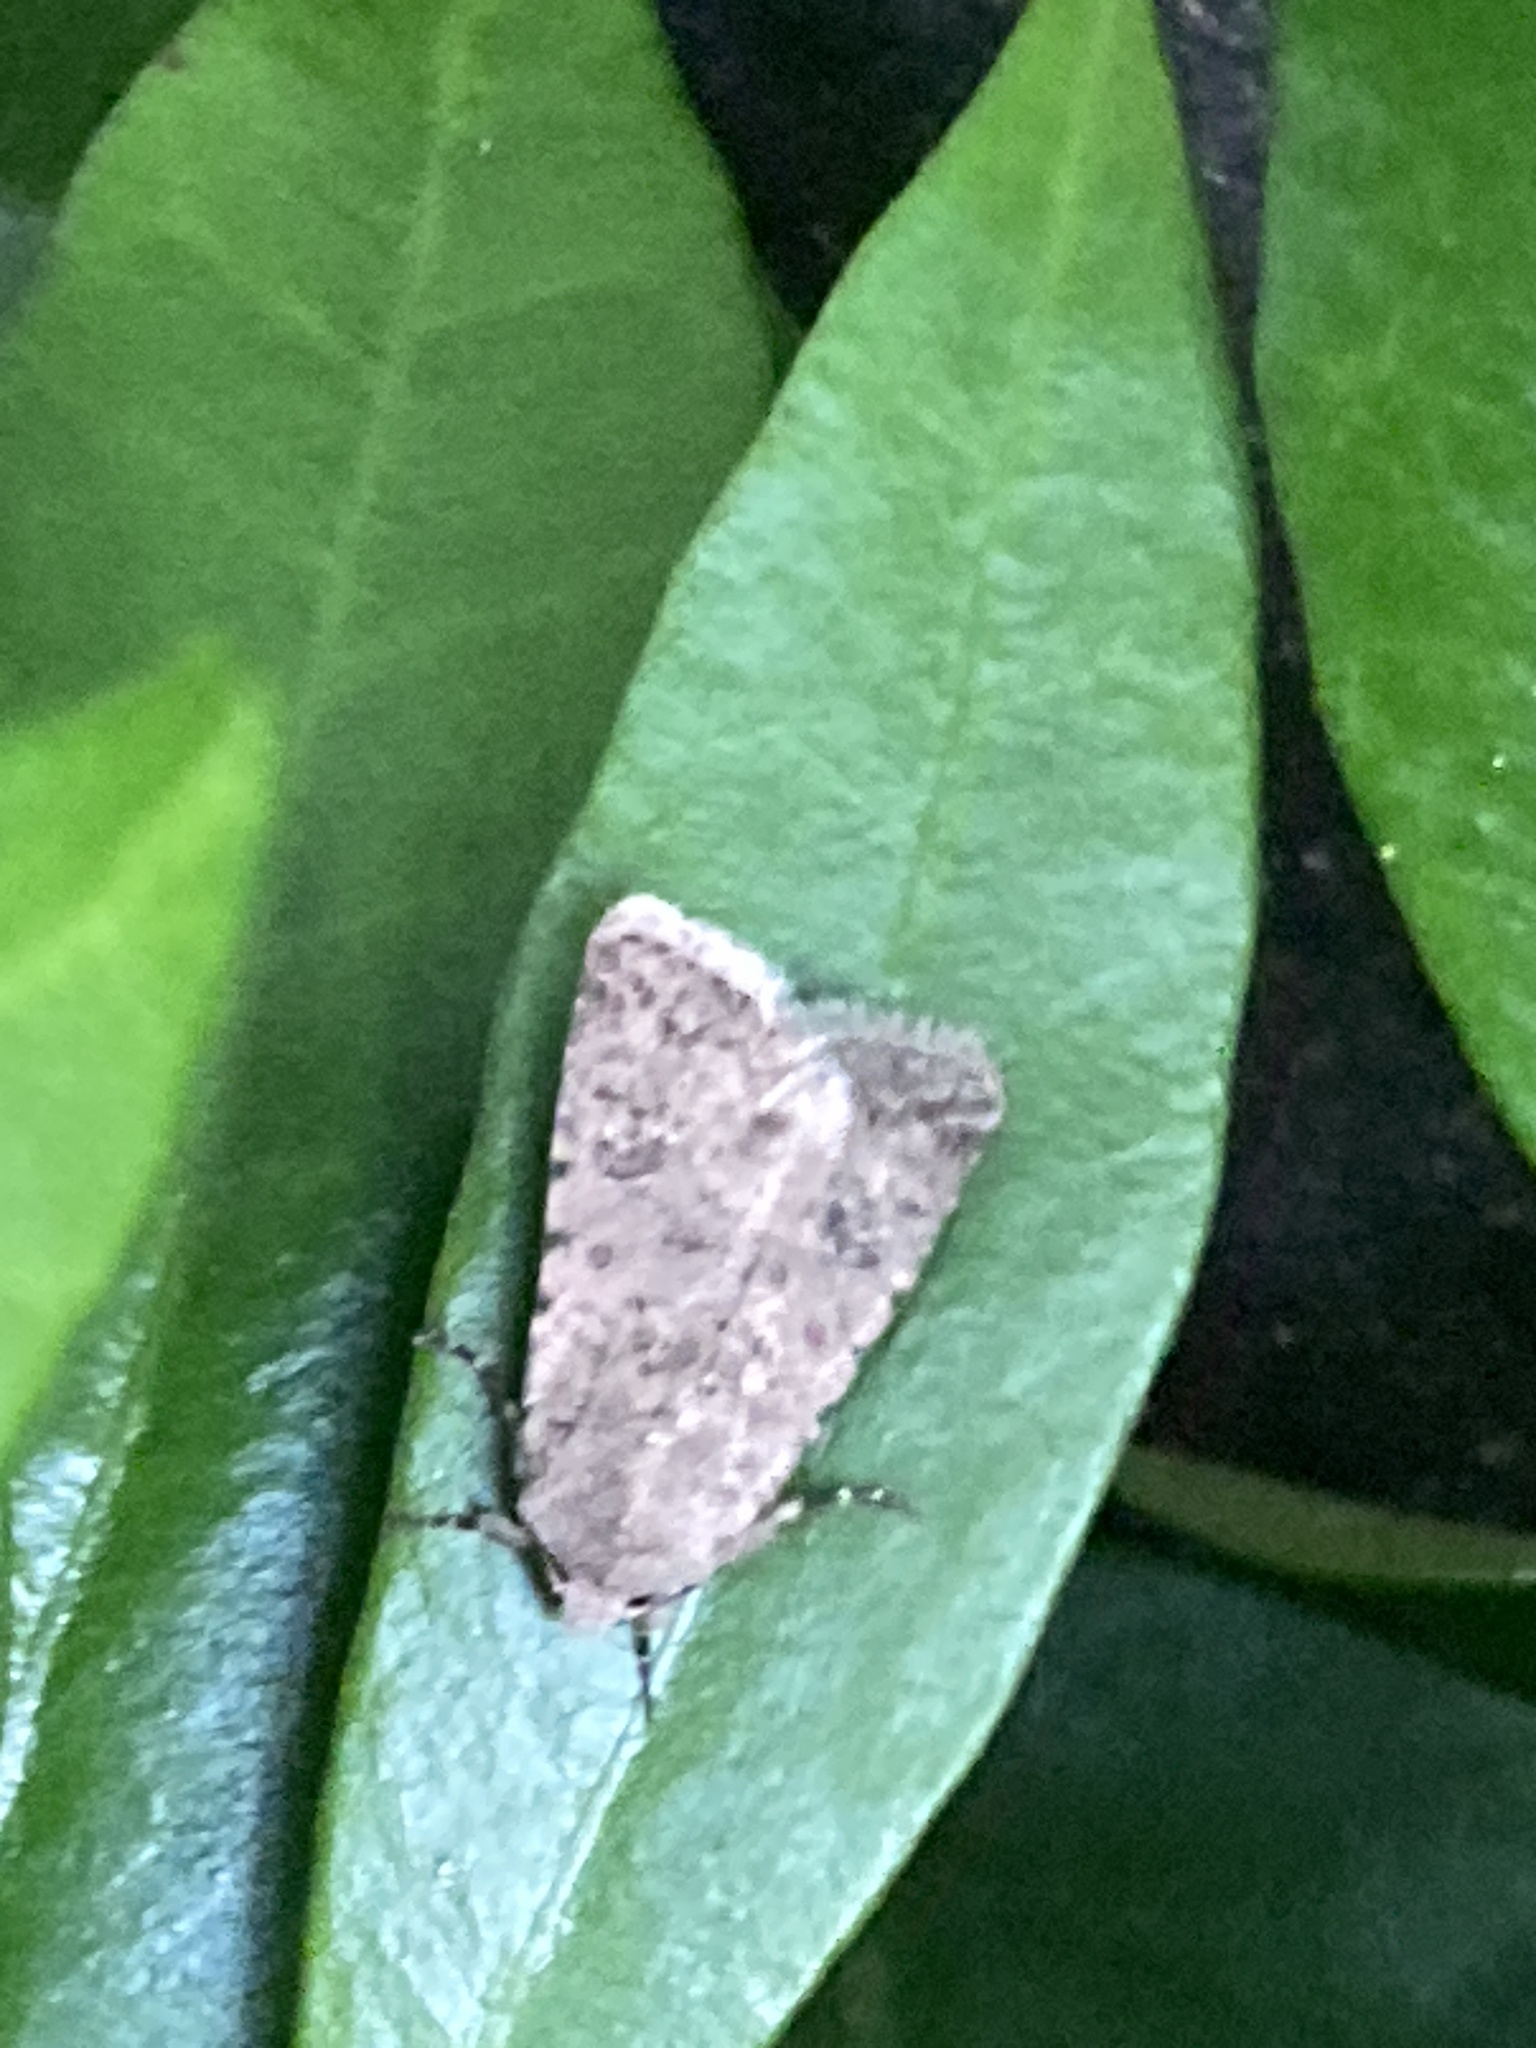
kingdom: Animalia
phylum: Arthropoda
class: Insecta
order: Lepidoptera
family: Noctuidae
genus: Caradrina
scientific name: Caradrina clavipalpis
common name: Pale mottled willow
